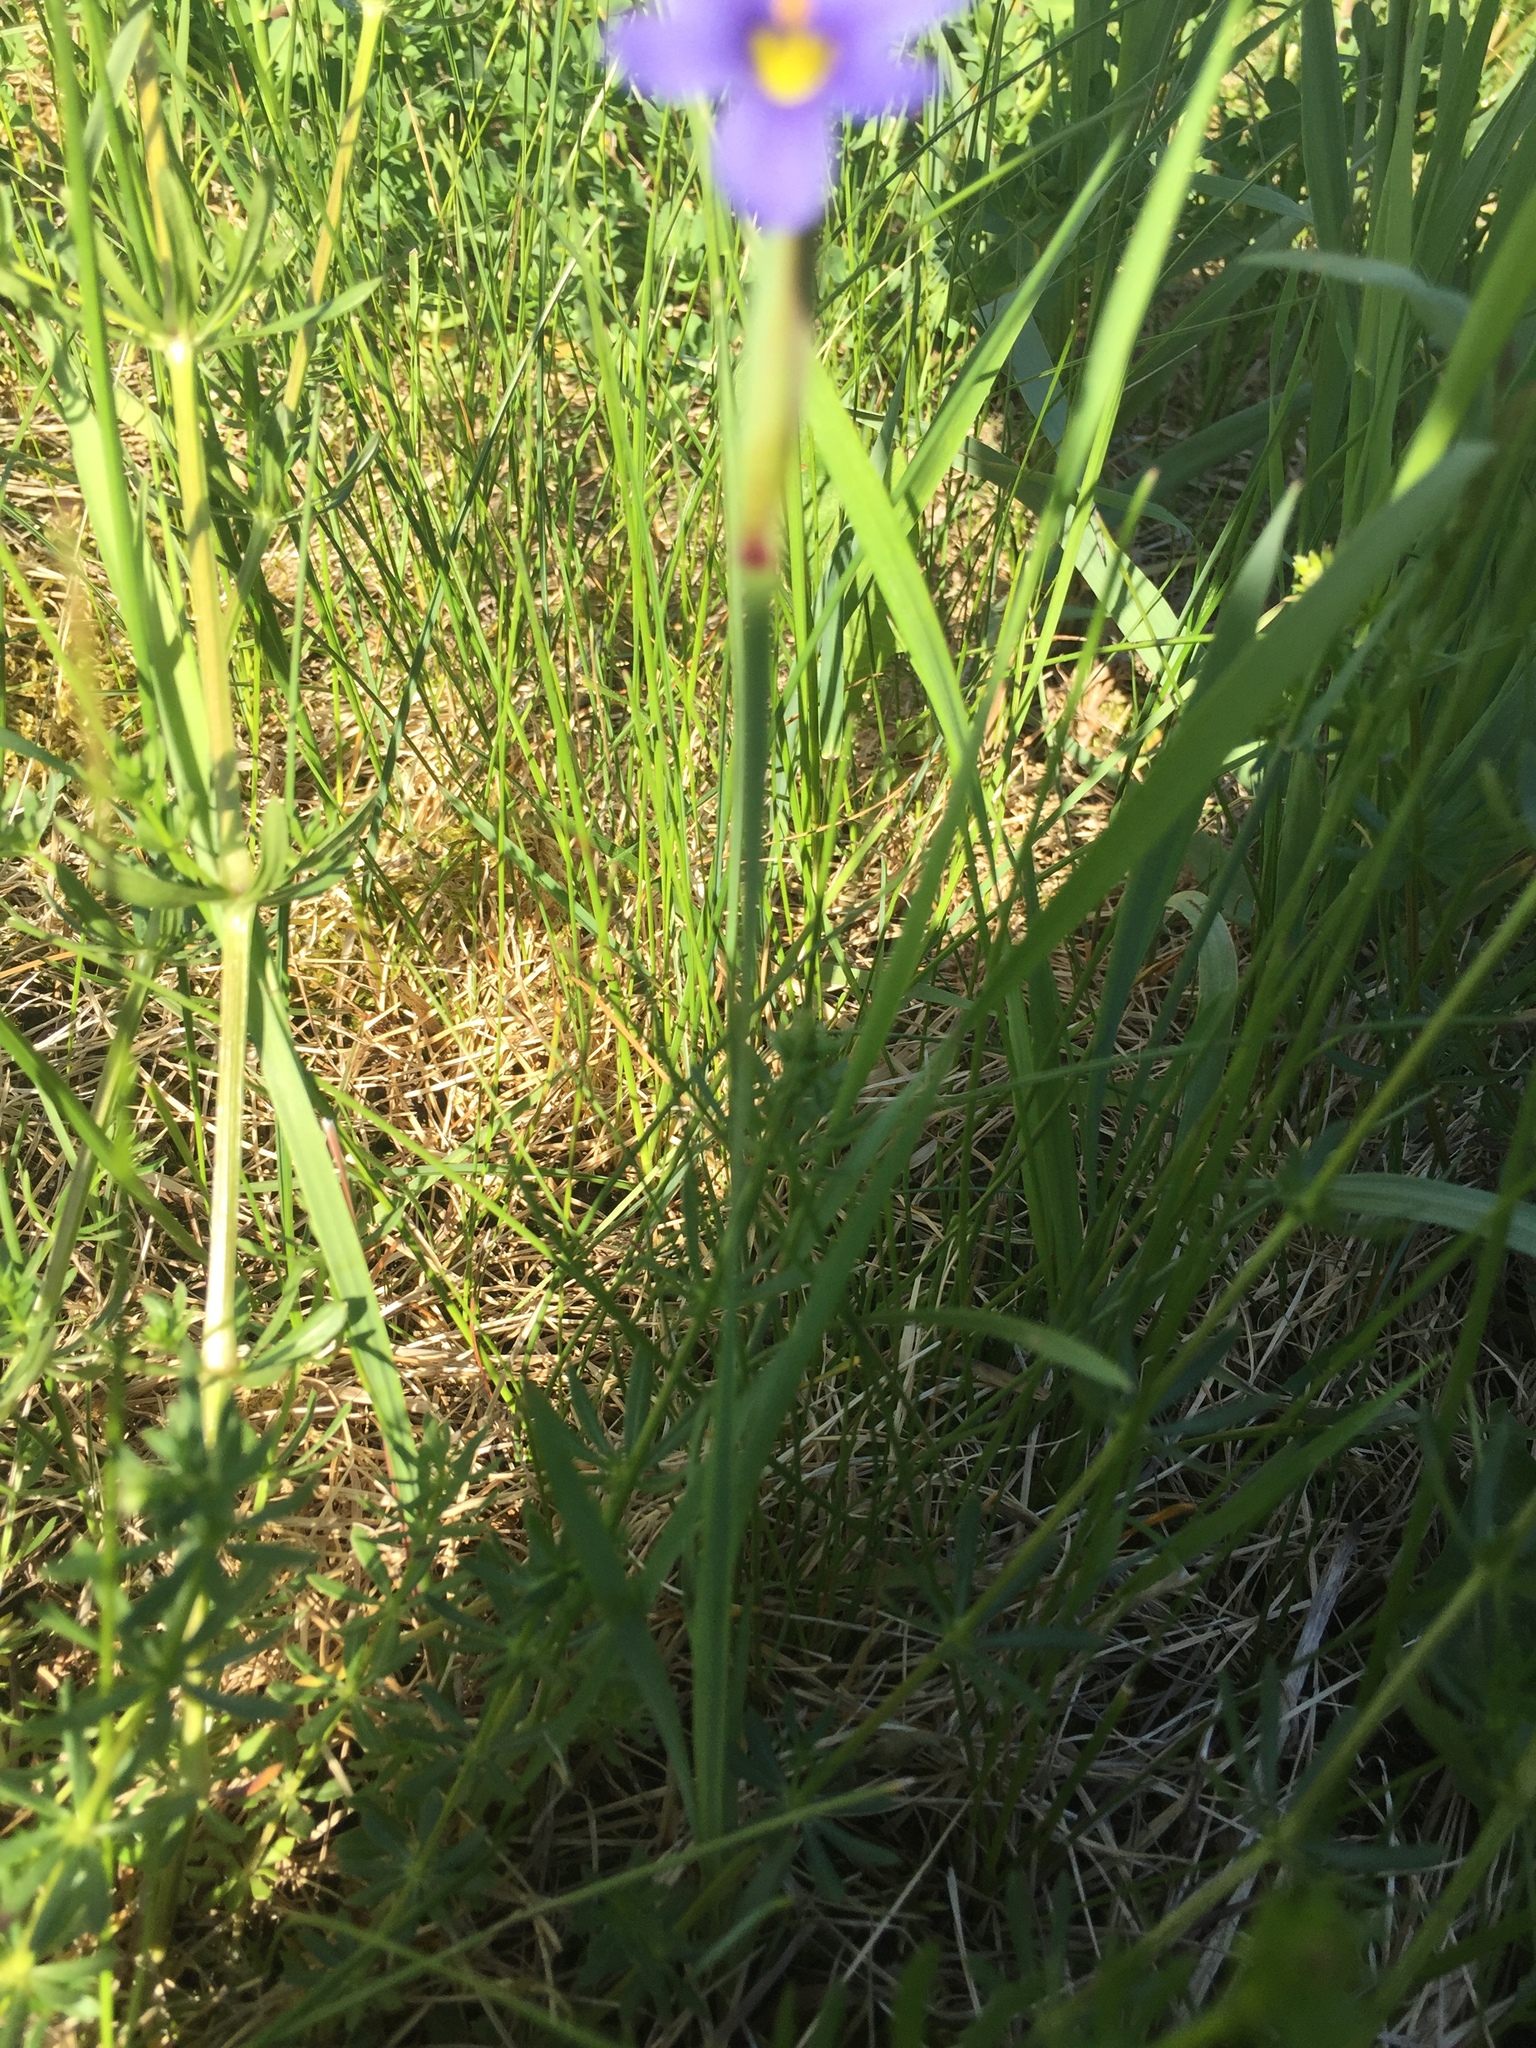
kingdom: Plantae
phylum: Tracheophyta
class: Liliopsida
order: Asparagales
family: Iridaceae
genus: Sisyrinchium
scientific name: Sisyrinchium montanum
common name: American blue-eyed-grass
